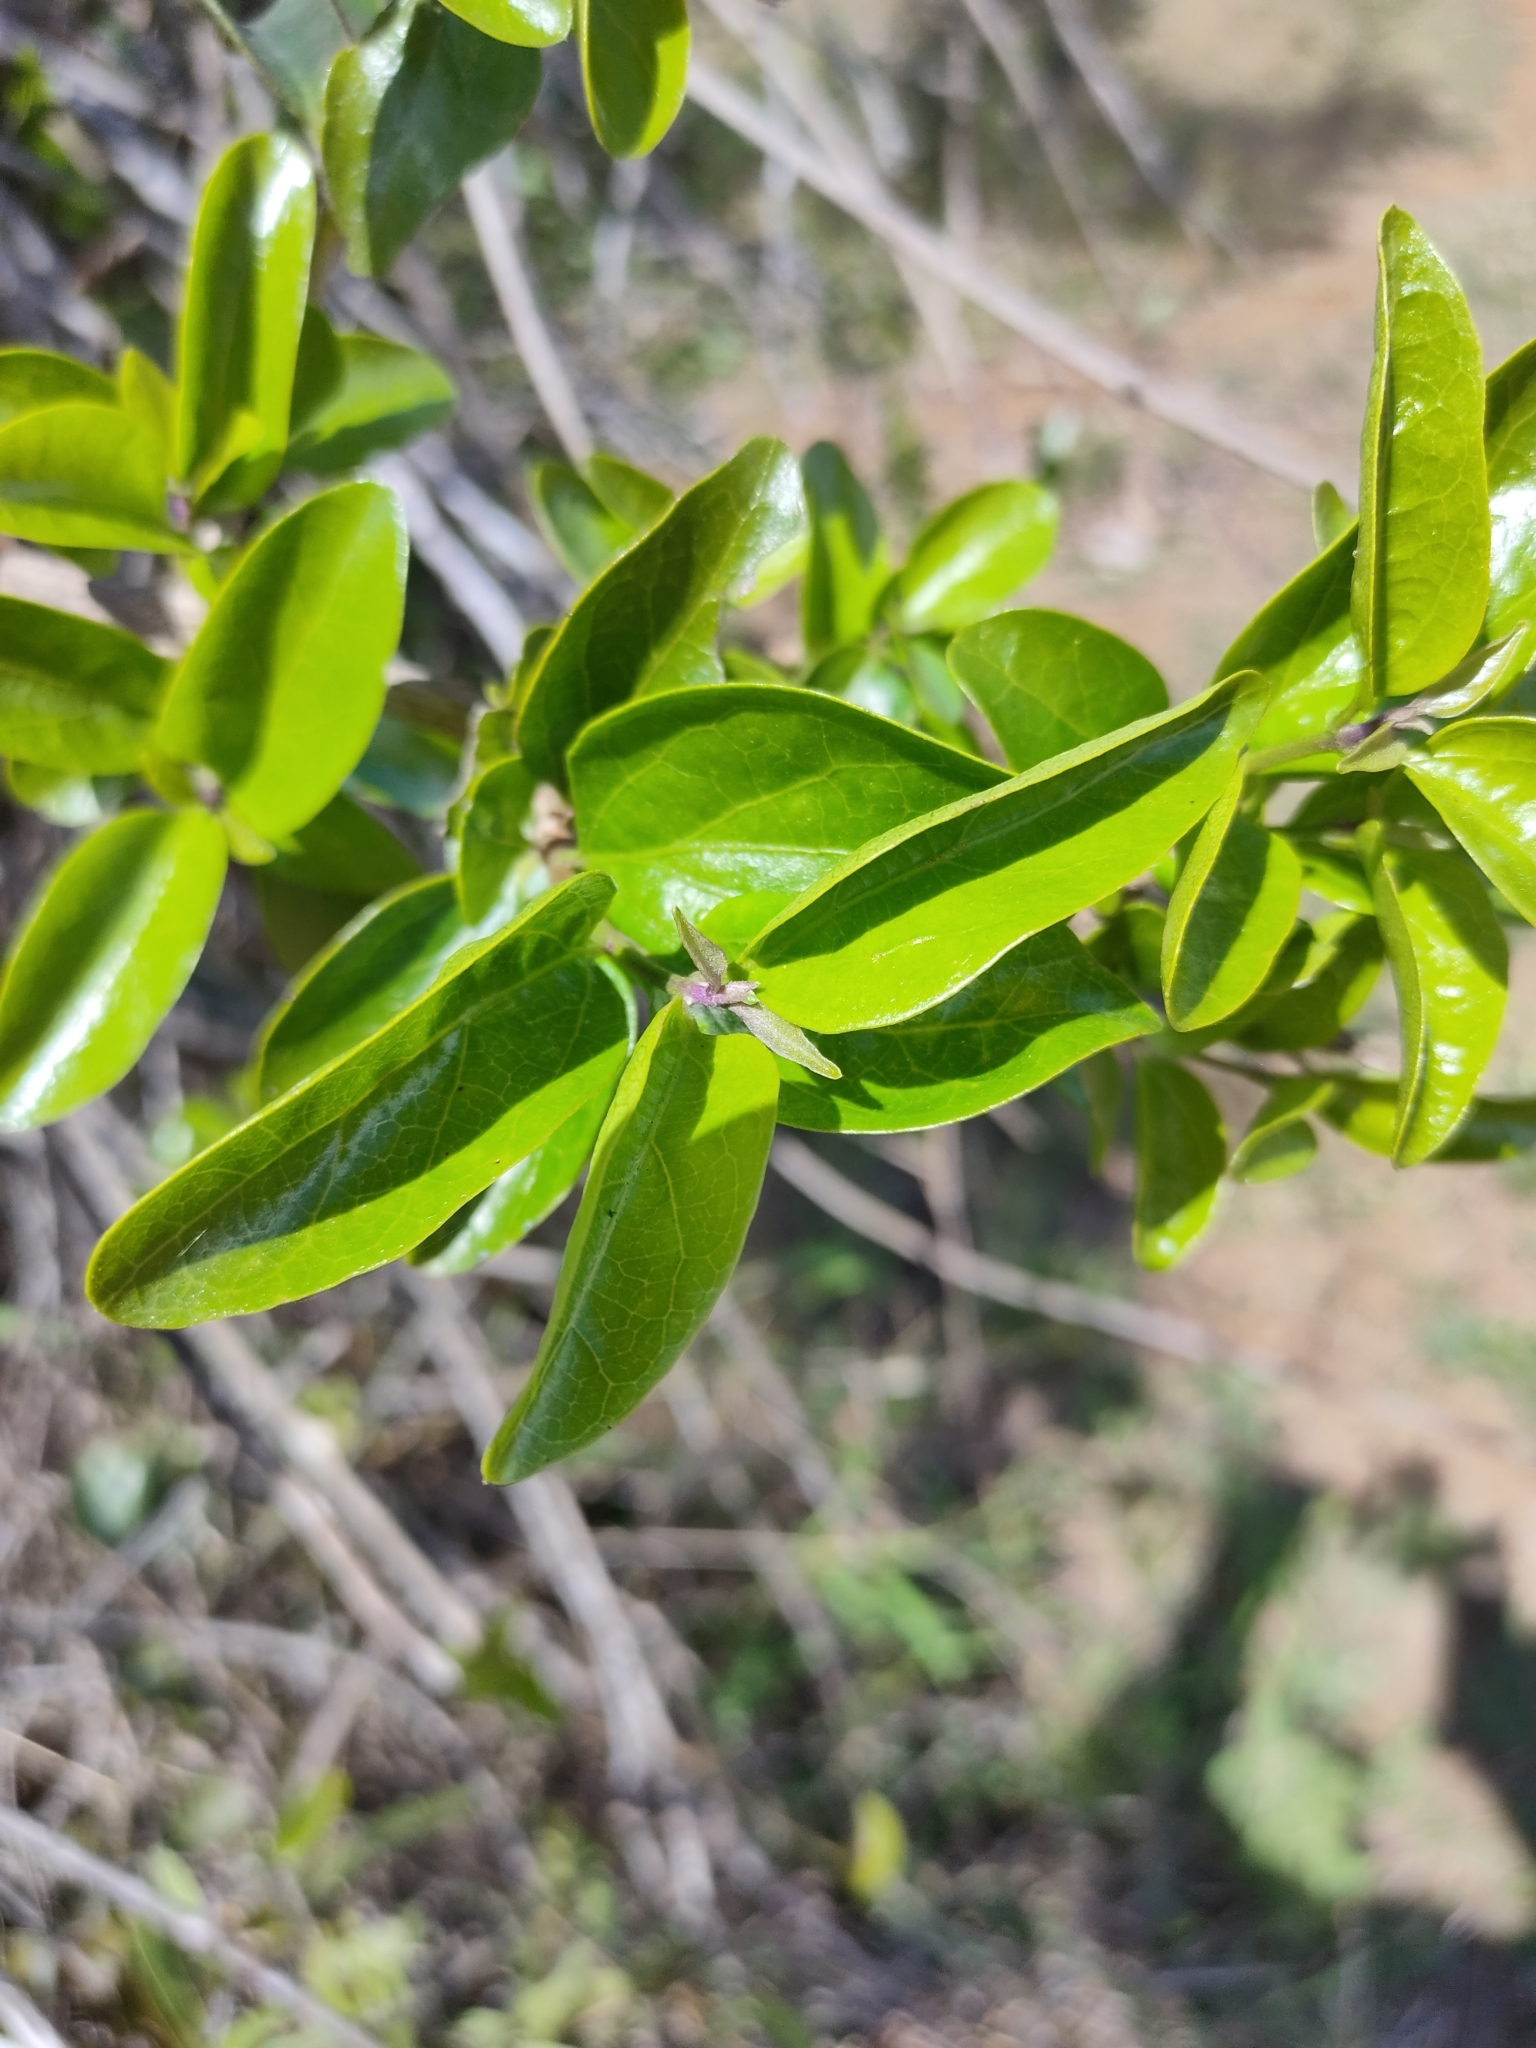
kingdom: Plantae
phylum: Tracheophyta
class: Magnoliopsida
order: Lamiales
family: Lamiaceae
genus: Glossocarya
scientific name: Glossocarya hemiderma
